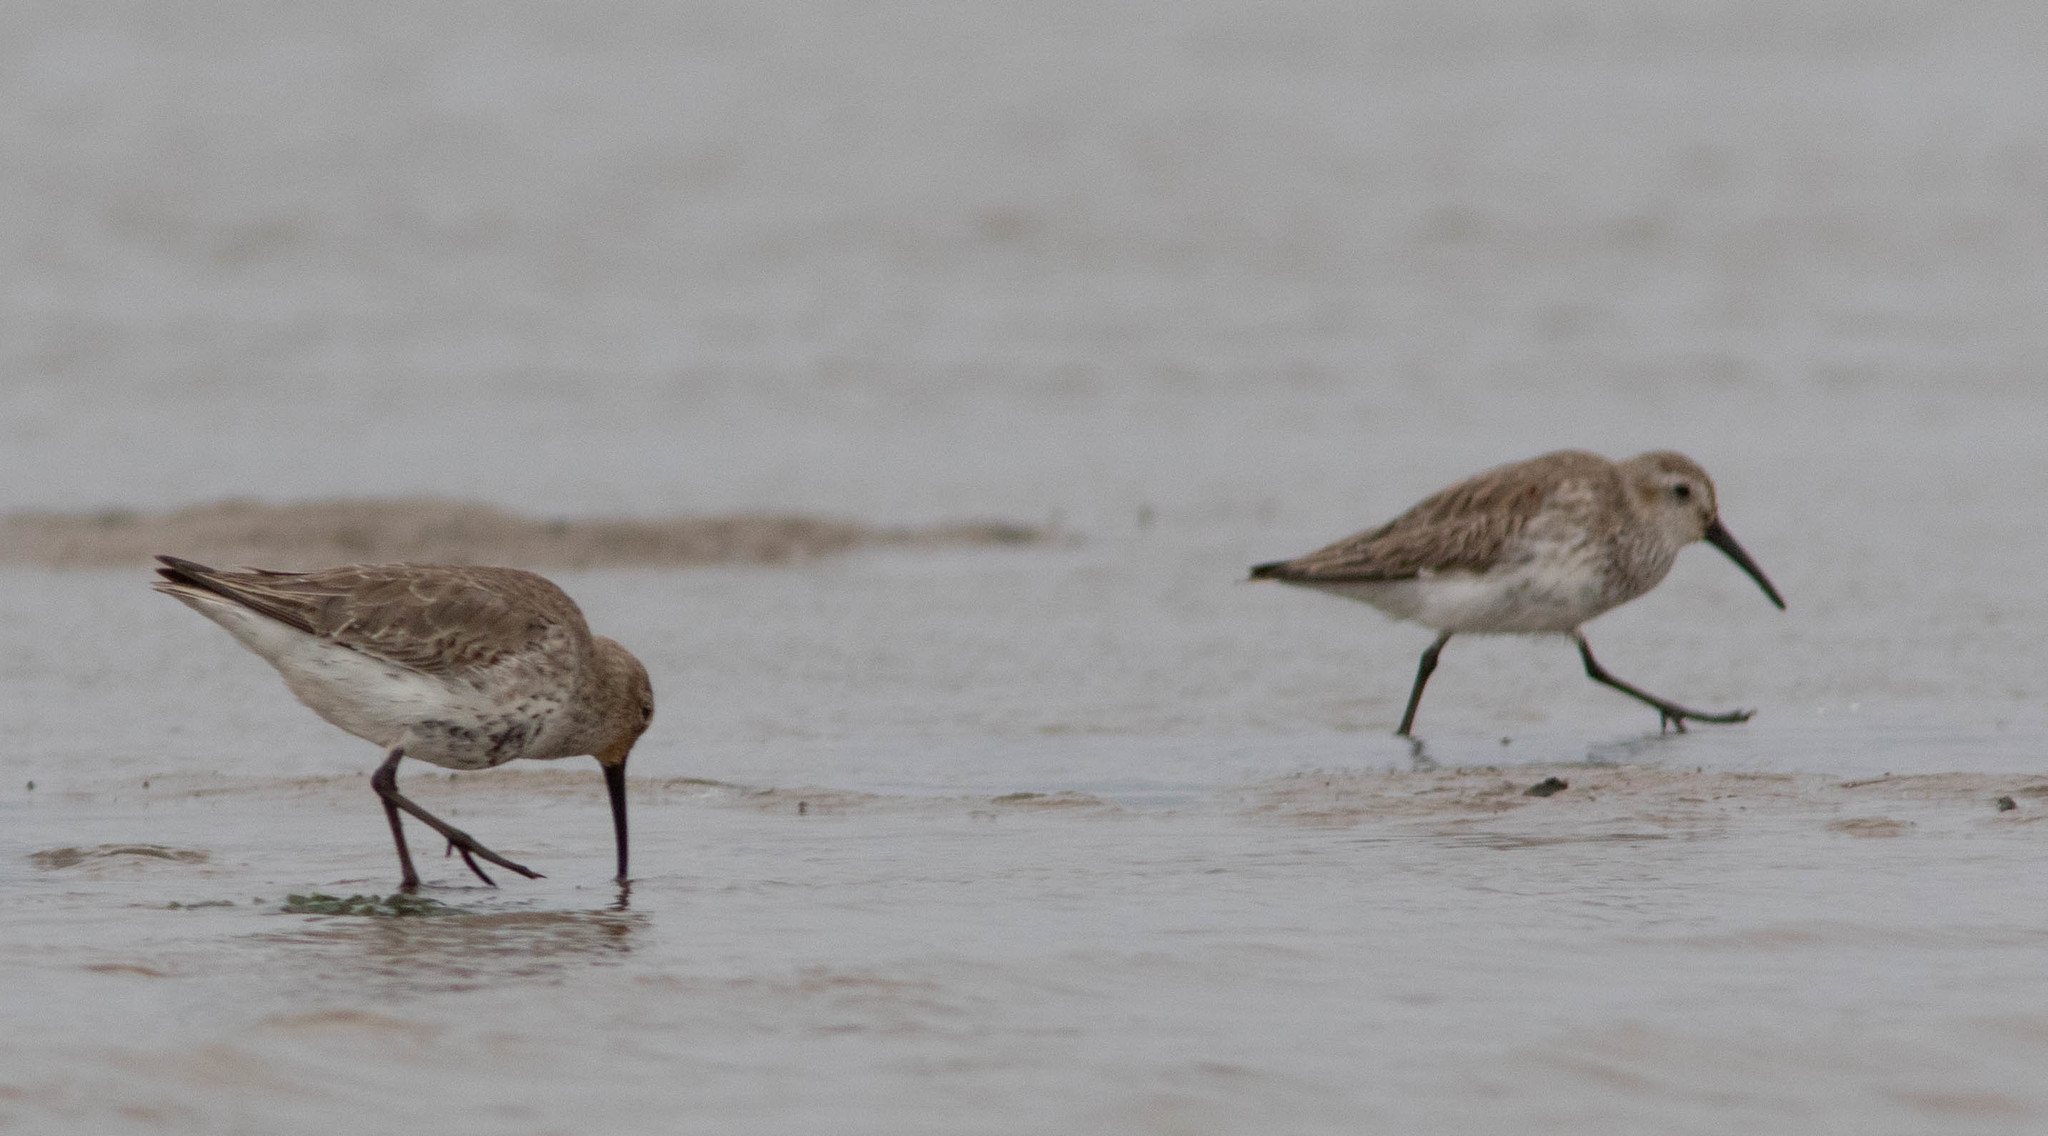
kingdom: Animalia
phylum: Chordata
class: Aves
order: Charadriiformes
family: Scolopacidae
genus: Calidris
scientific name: Calidris alpina
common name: Dunlin
